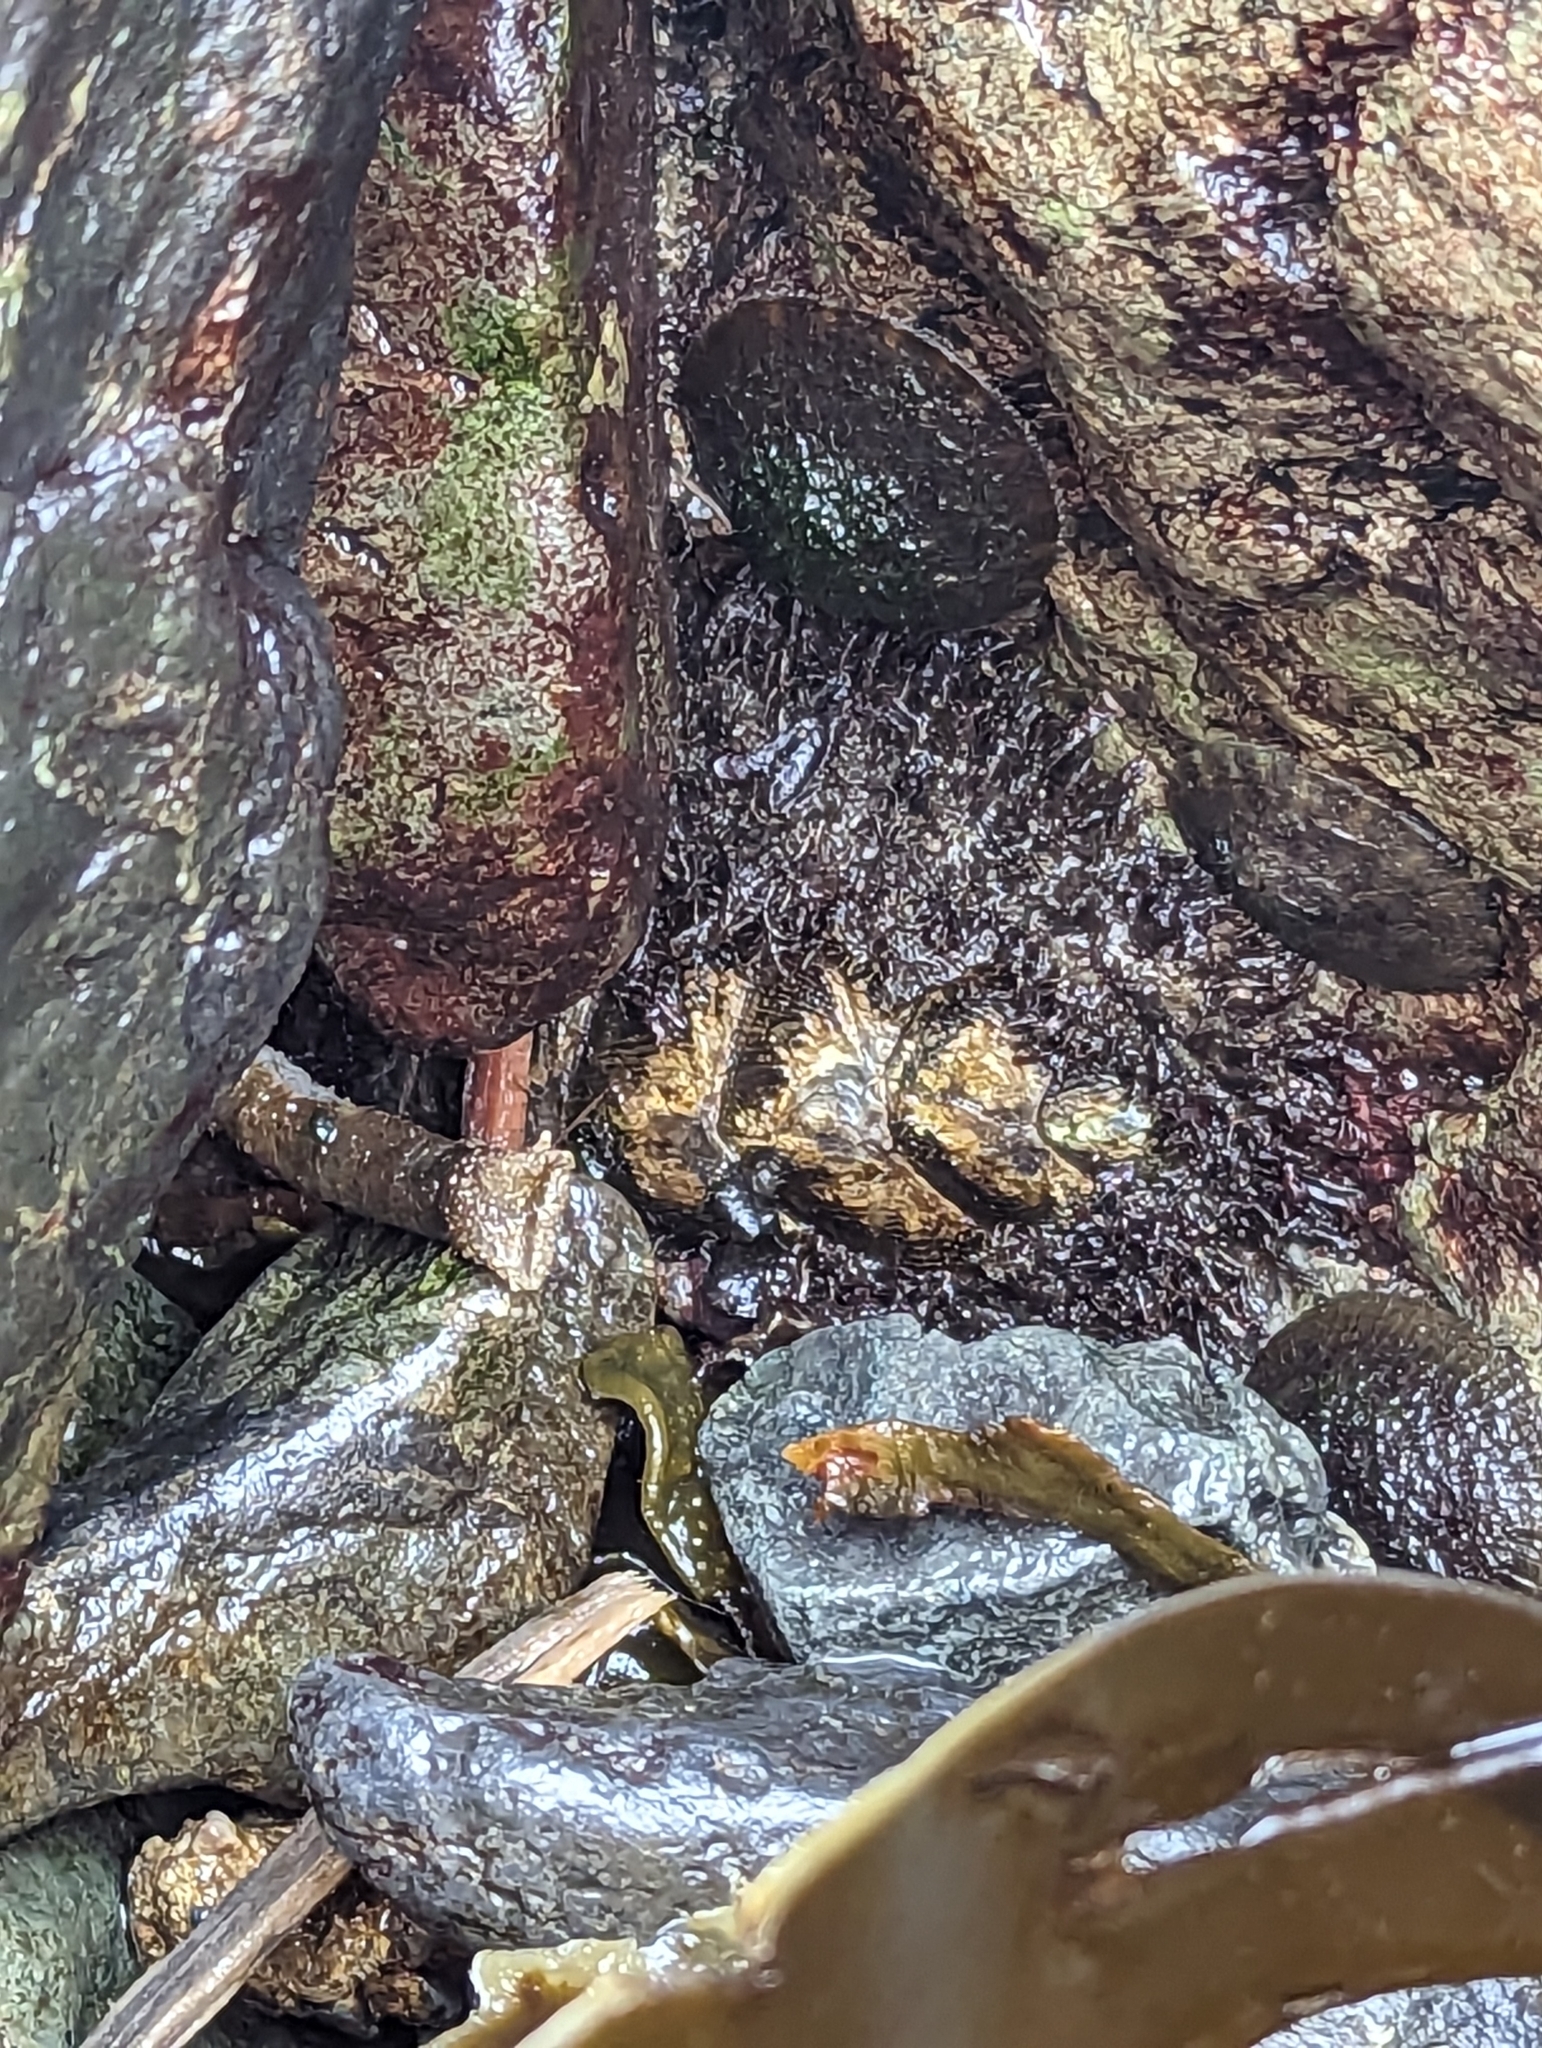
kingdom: Animalia
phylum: Mollusca
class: Polyplacophora
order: Chitonida
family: Mopaliidae
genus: Mopalia
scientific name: Mopalia muscosa
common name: Mossy chiton
